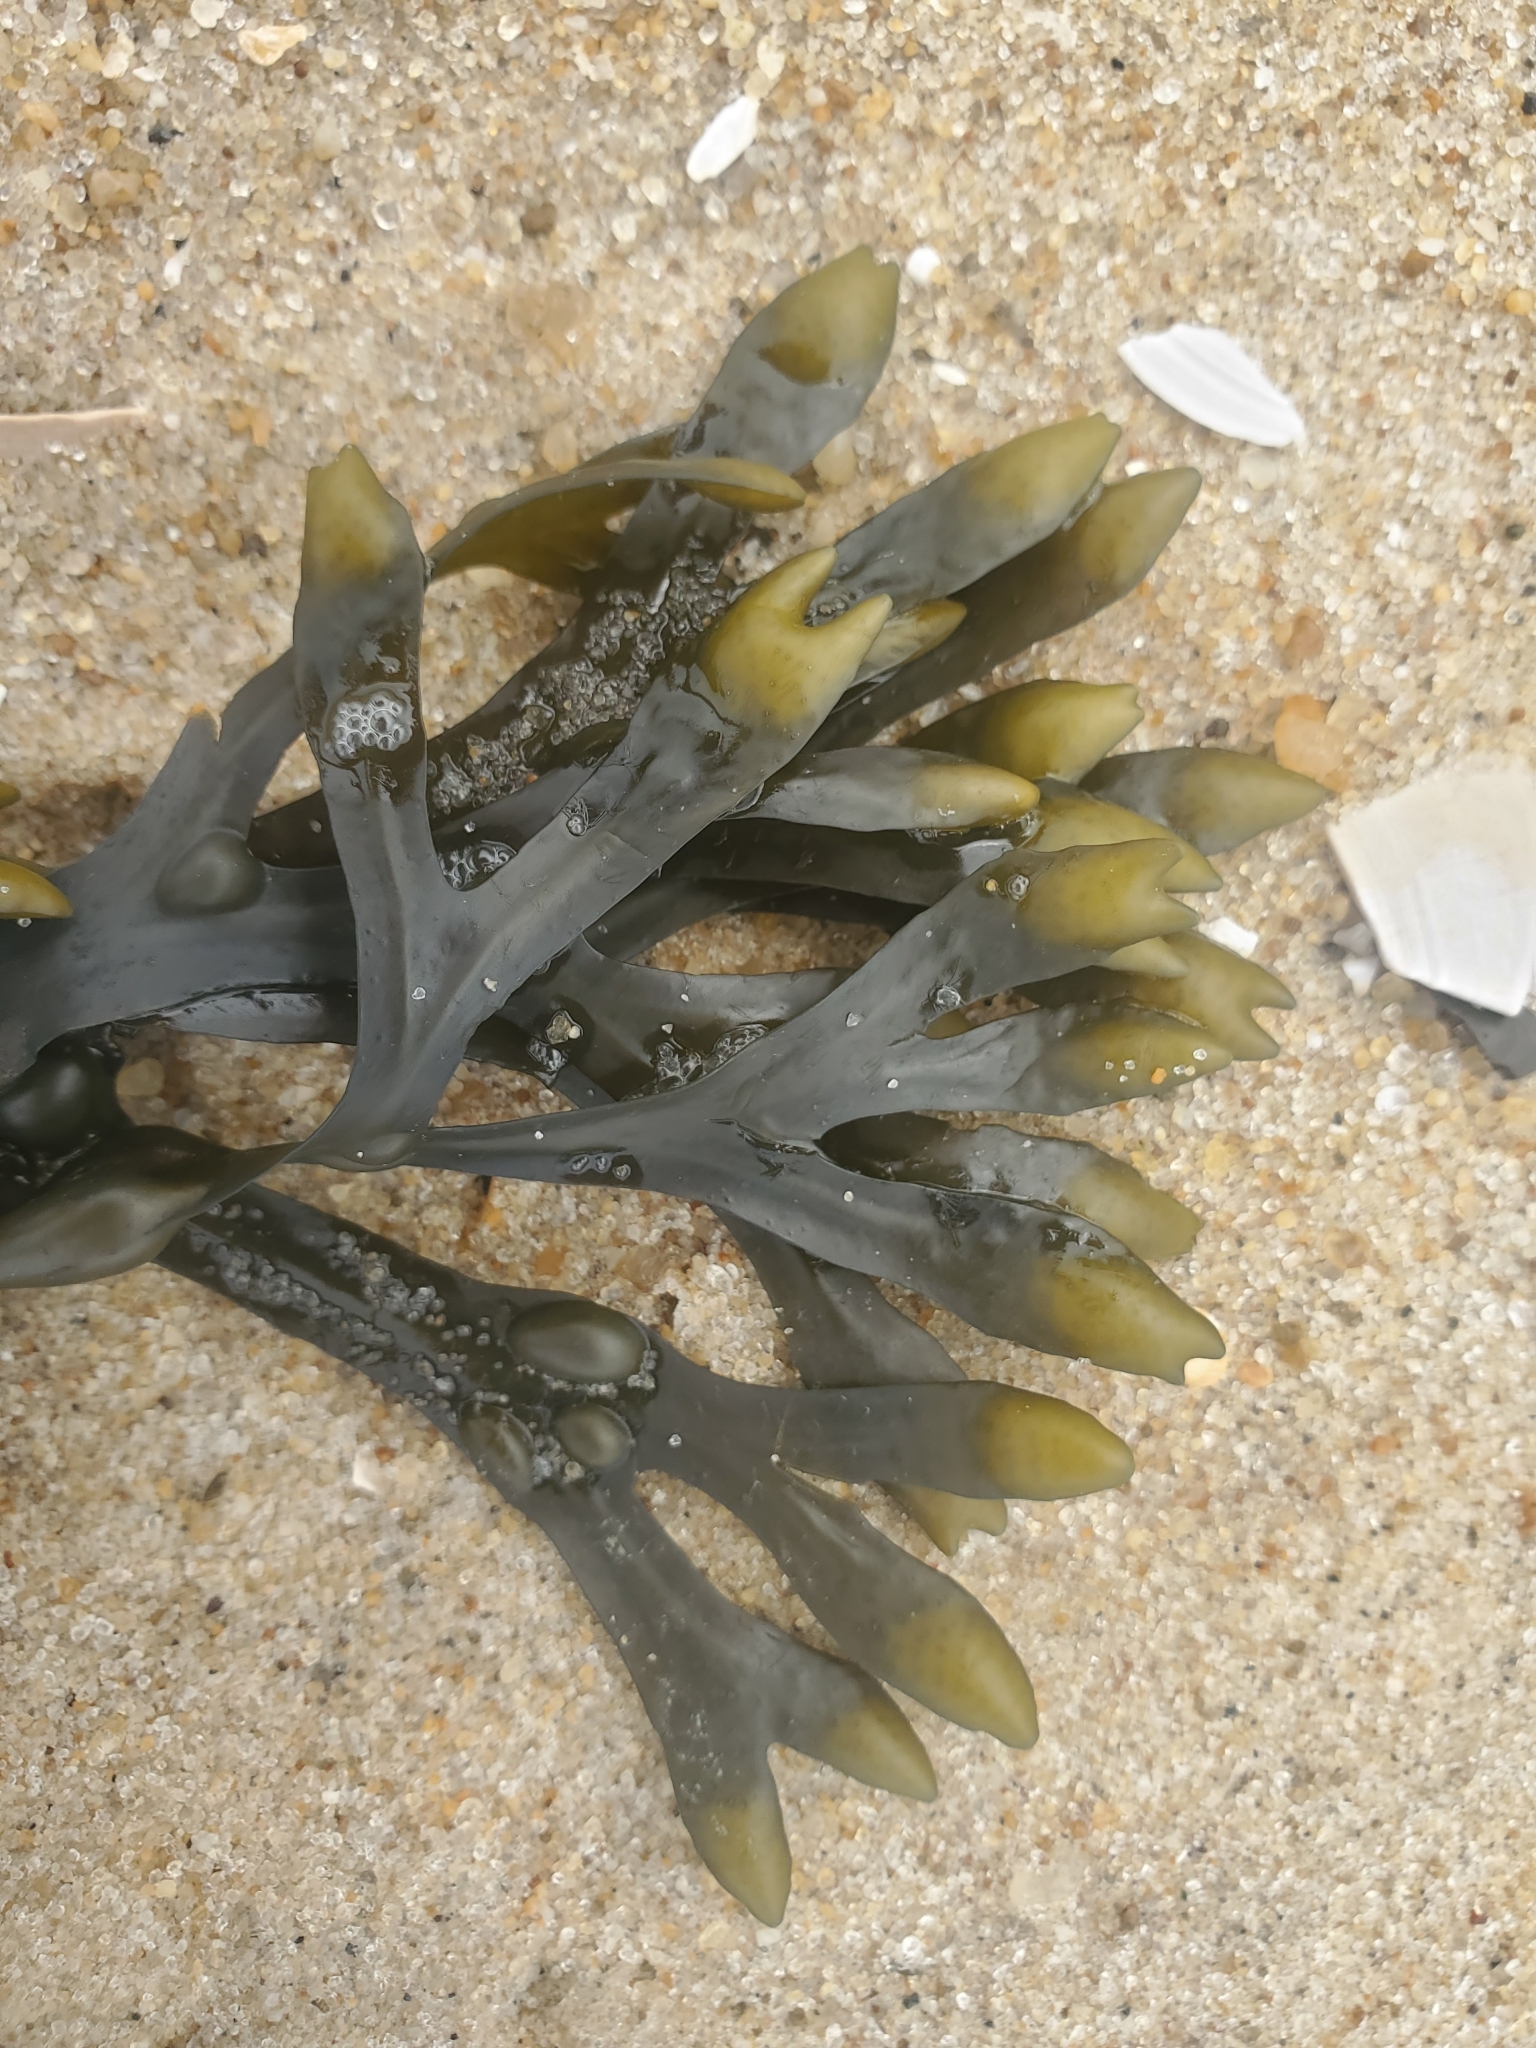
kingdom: Chromista
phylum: Ochrophyta
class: Phaeophyceae
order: Fucales
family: Fucaceae
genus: Fucus
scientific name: Fucus vesiculosus
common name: Bladder wrack
